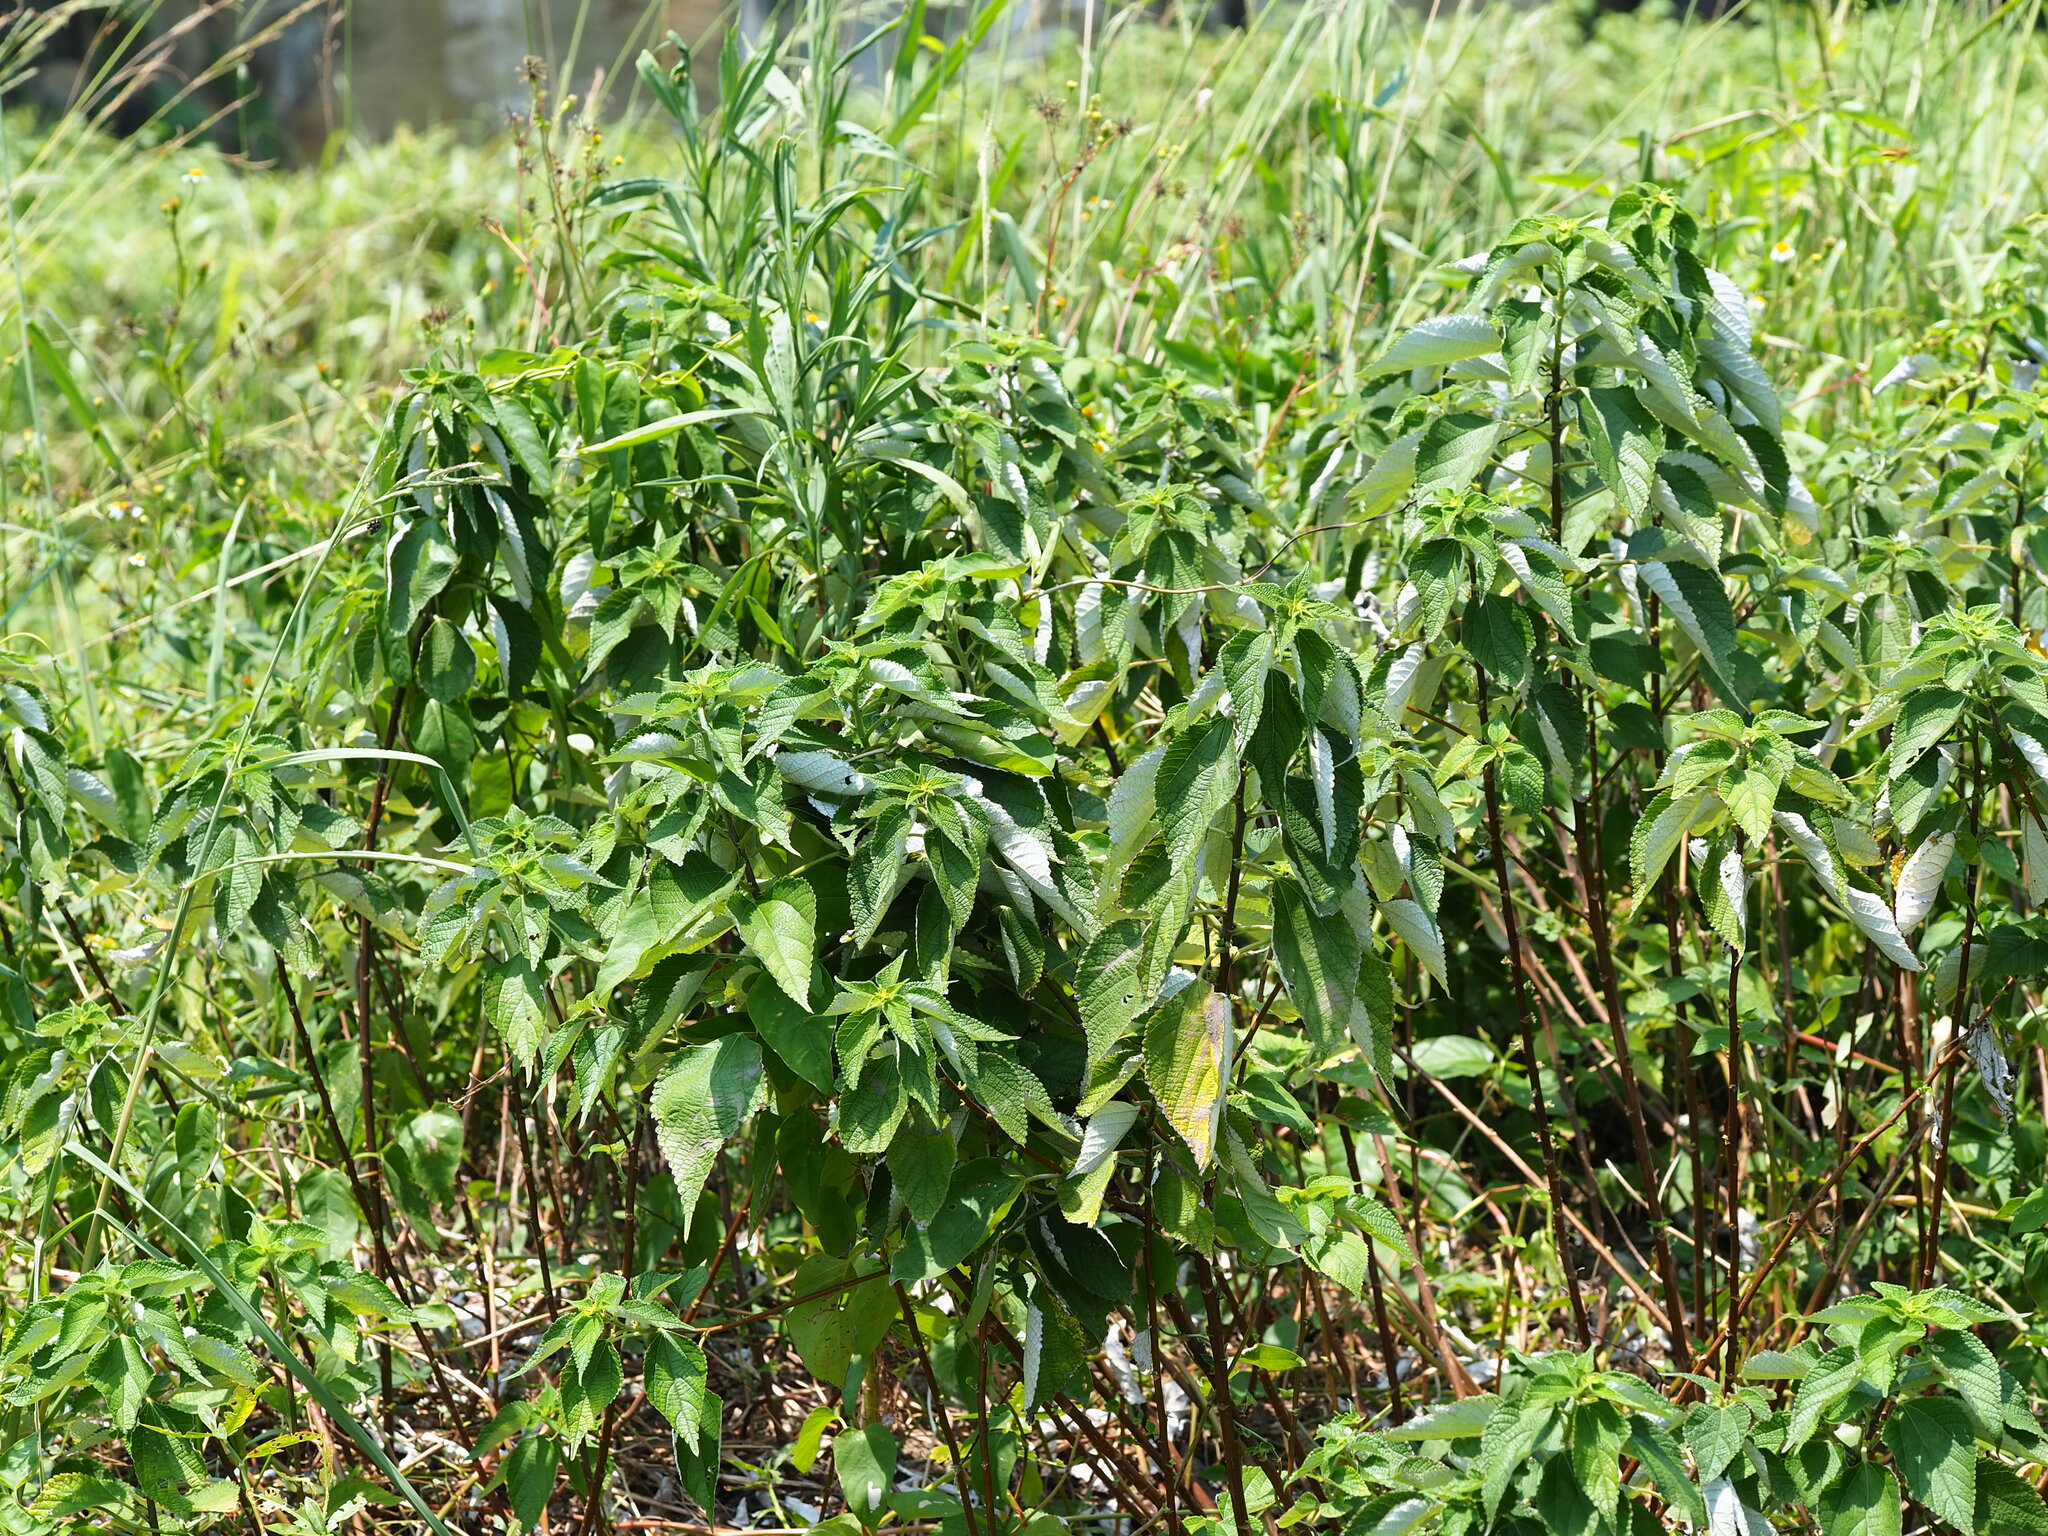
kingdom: Plantae
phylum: Tracheophyta
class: Magnoliopsida
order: Rosales
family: Urticaceae
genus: Boehmeria
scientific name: Boehmeria nivea
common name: Ramie chinese grass
